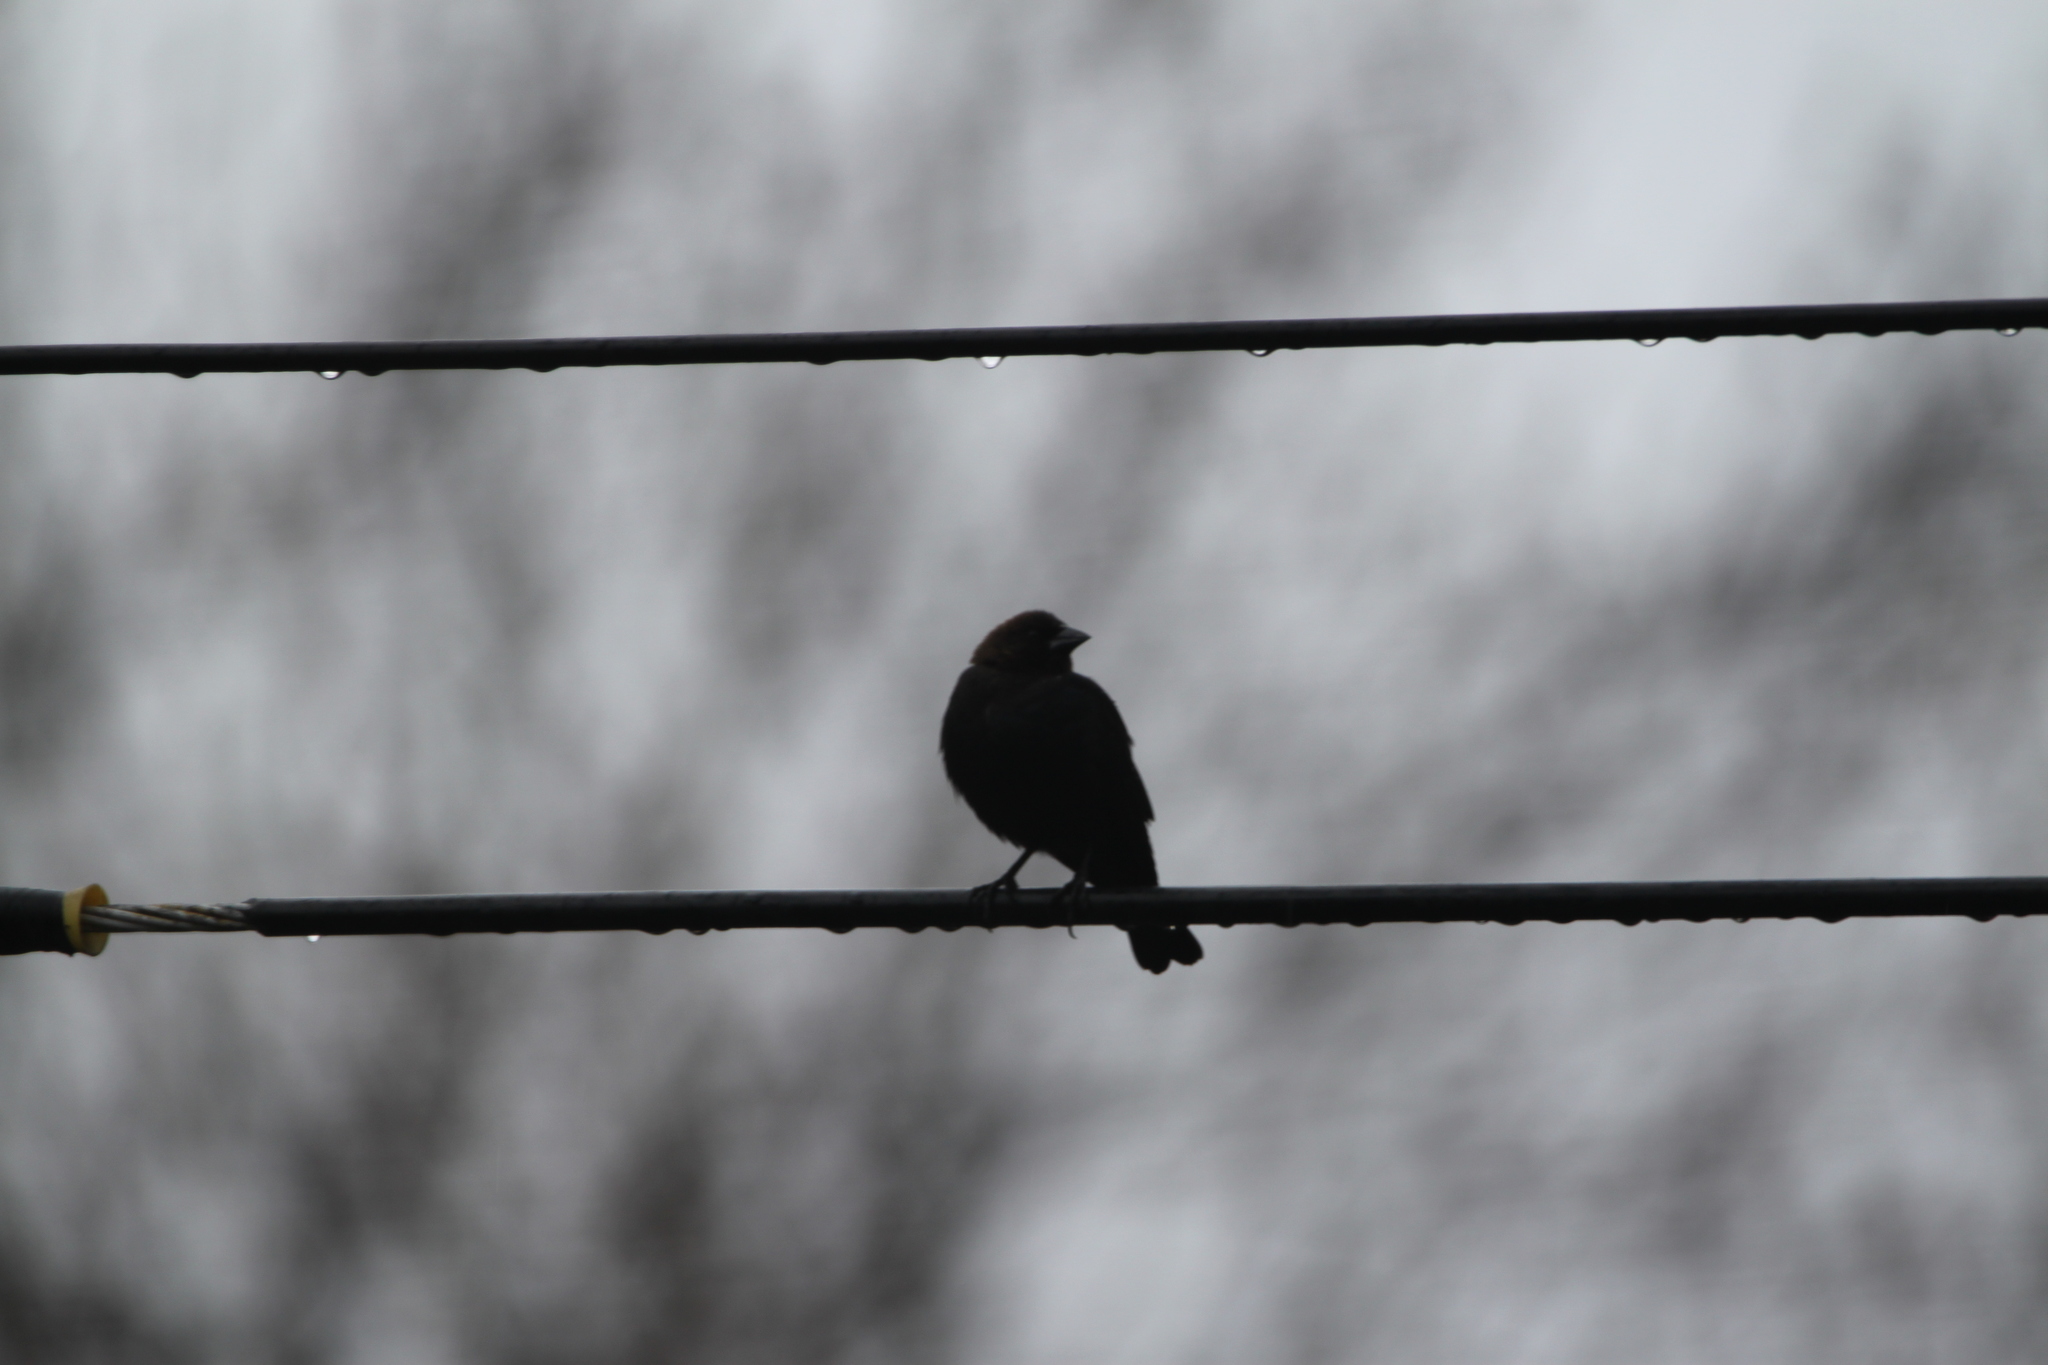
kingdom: Animalia
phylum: Chordata
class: Aves
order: Passeriformes
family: Icteridae
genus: Molothrus
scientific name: Molothrus ater
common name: Brown-headed cowbird
